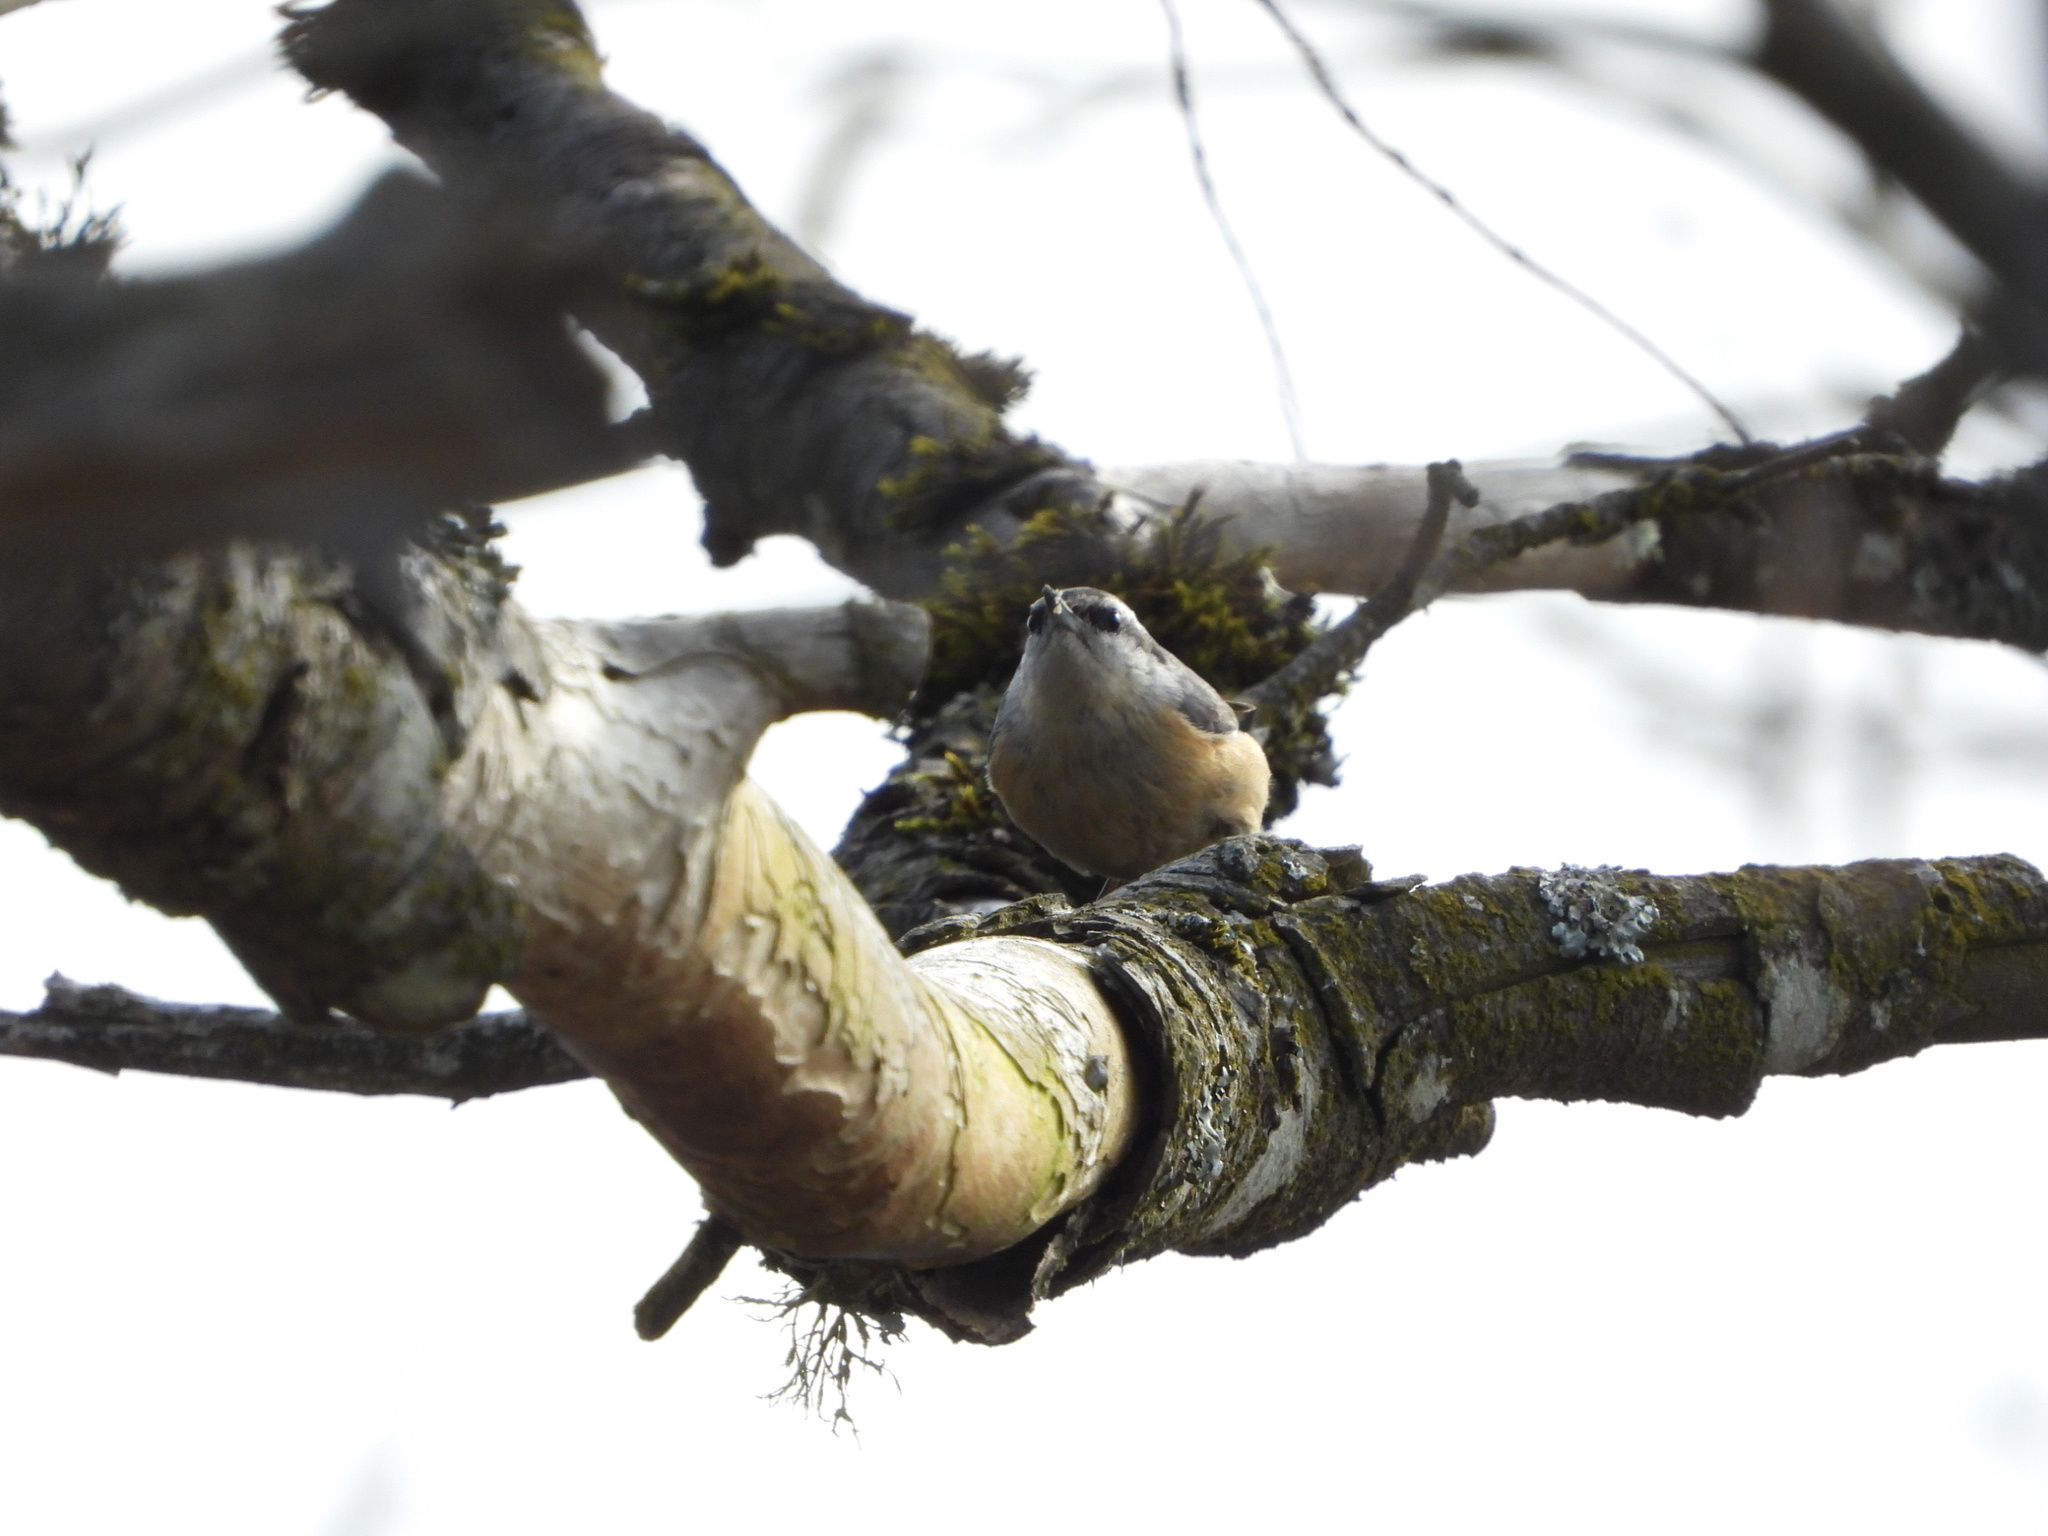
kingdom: Animalia
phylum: Chordata
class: Aves
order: Passeriformes
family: Sittidae
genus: Sitta
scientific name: Sitta canadensis
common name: Red-breasted nuthatch
